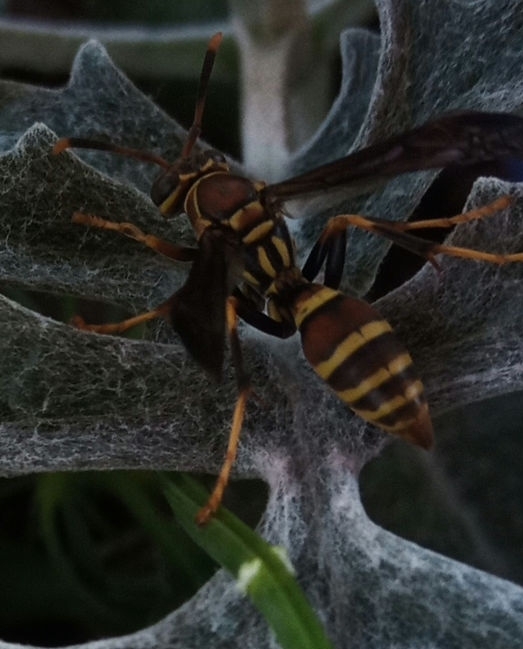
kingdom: Animalia
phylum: Arthropoda
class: Insecta
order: Hymenoptera
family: Eumenidae
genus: Polistes
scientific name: Polistes exclamans
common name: Paper wasp
